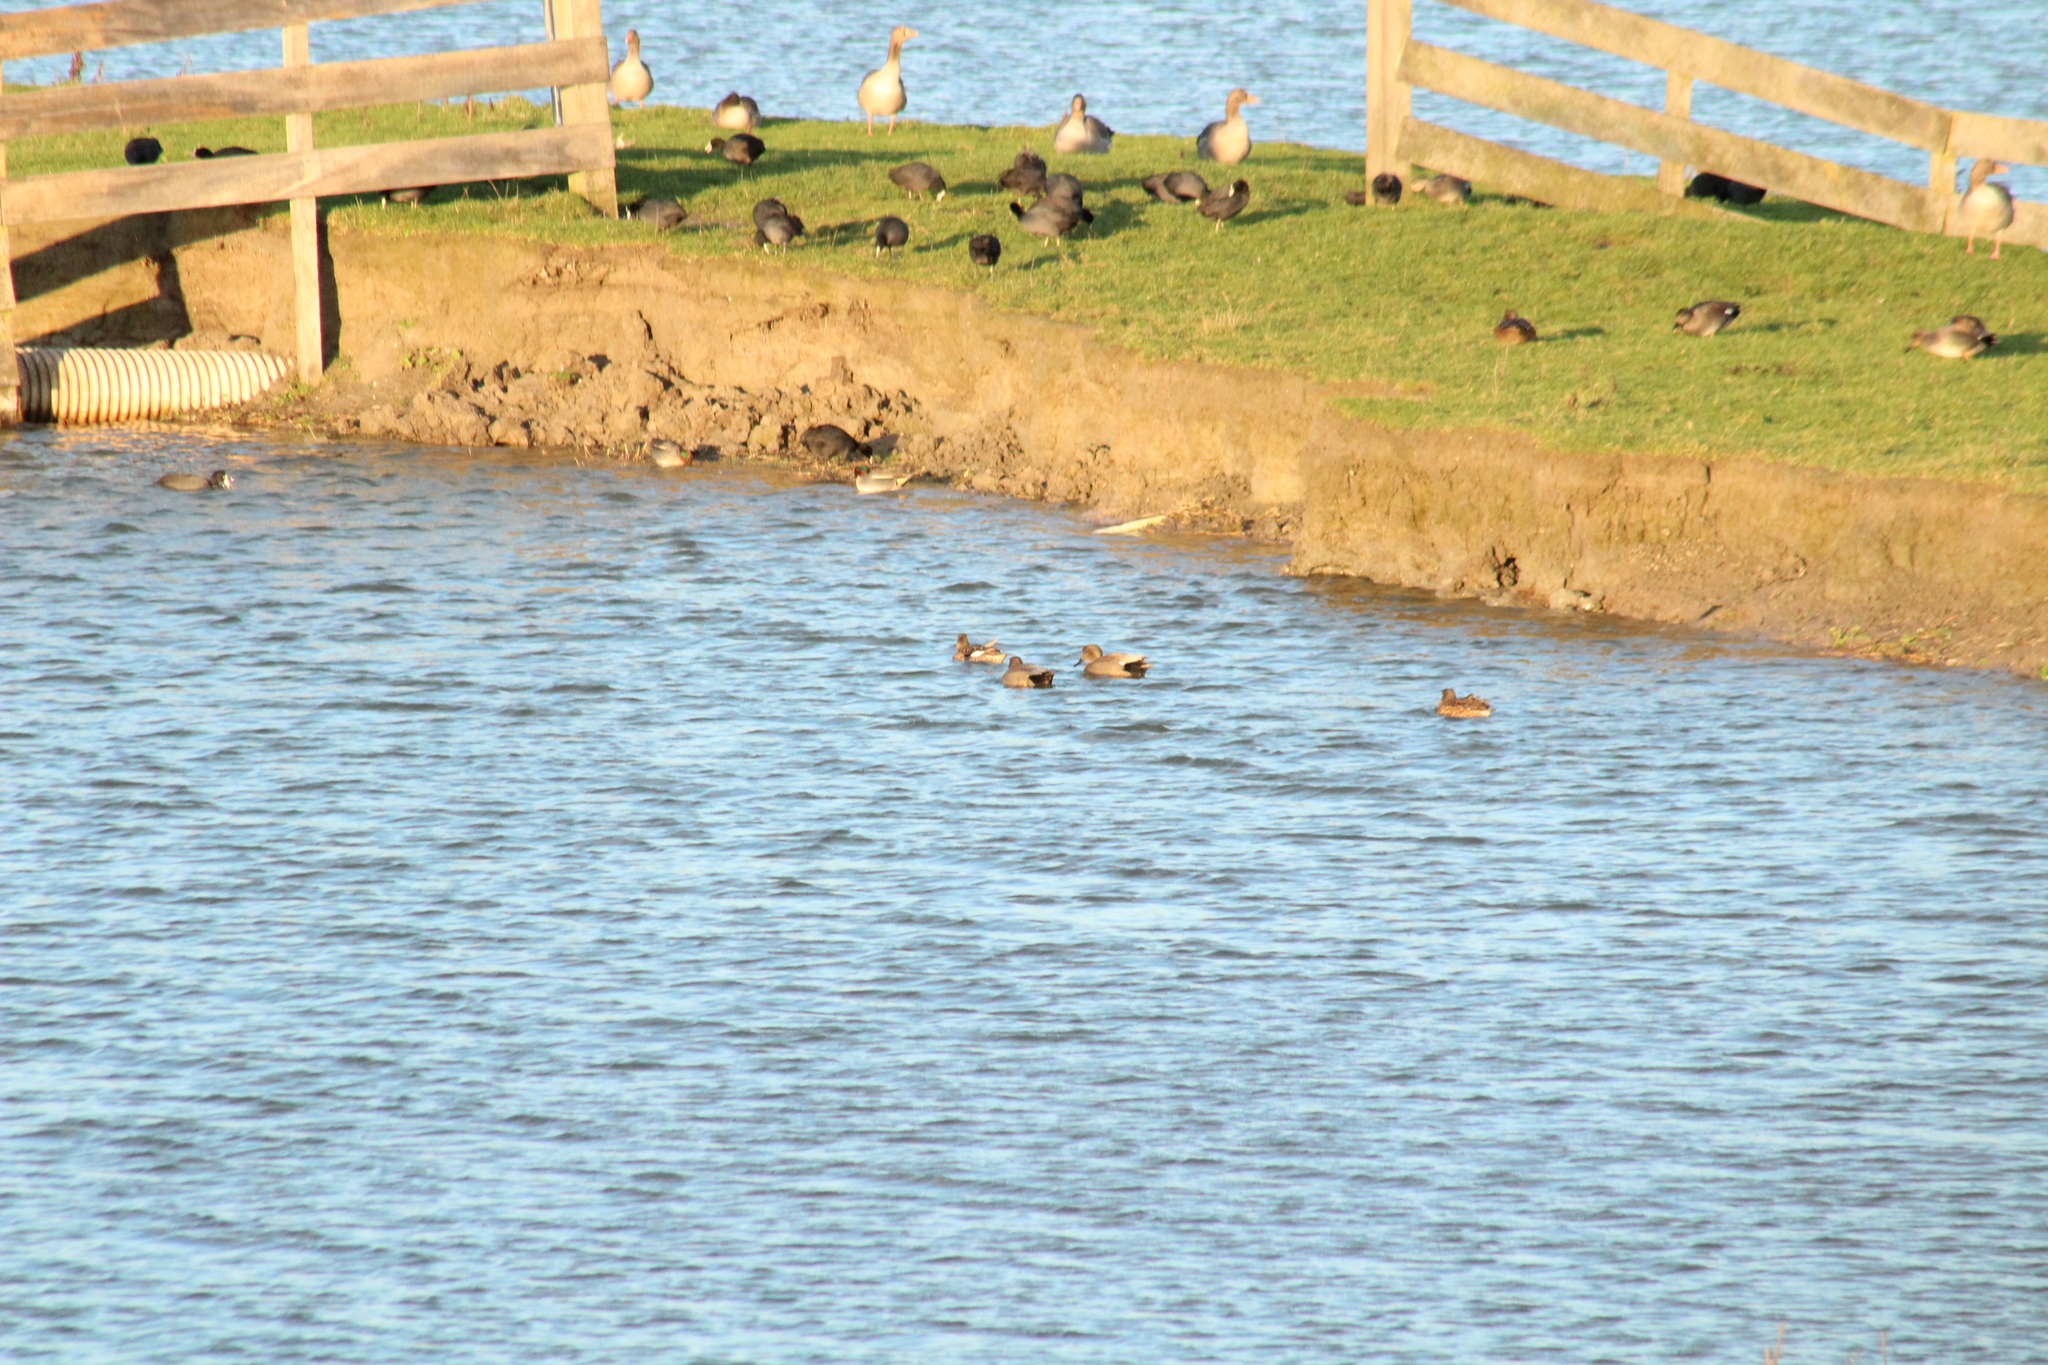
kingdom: Animalia
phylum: Chordata
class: Aves
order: Anseriformes
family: Anatidae
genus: Mareca
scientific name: Mareca strepera
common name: Gadwall
